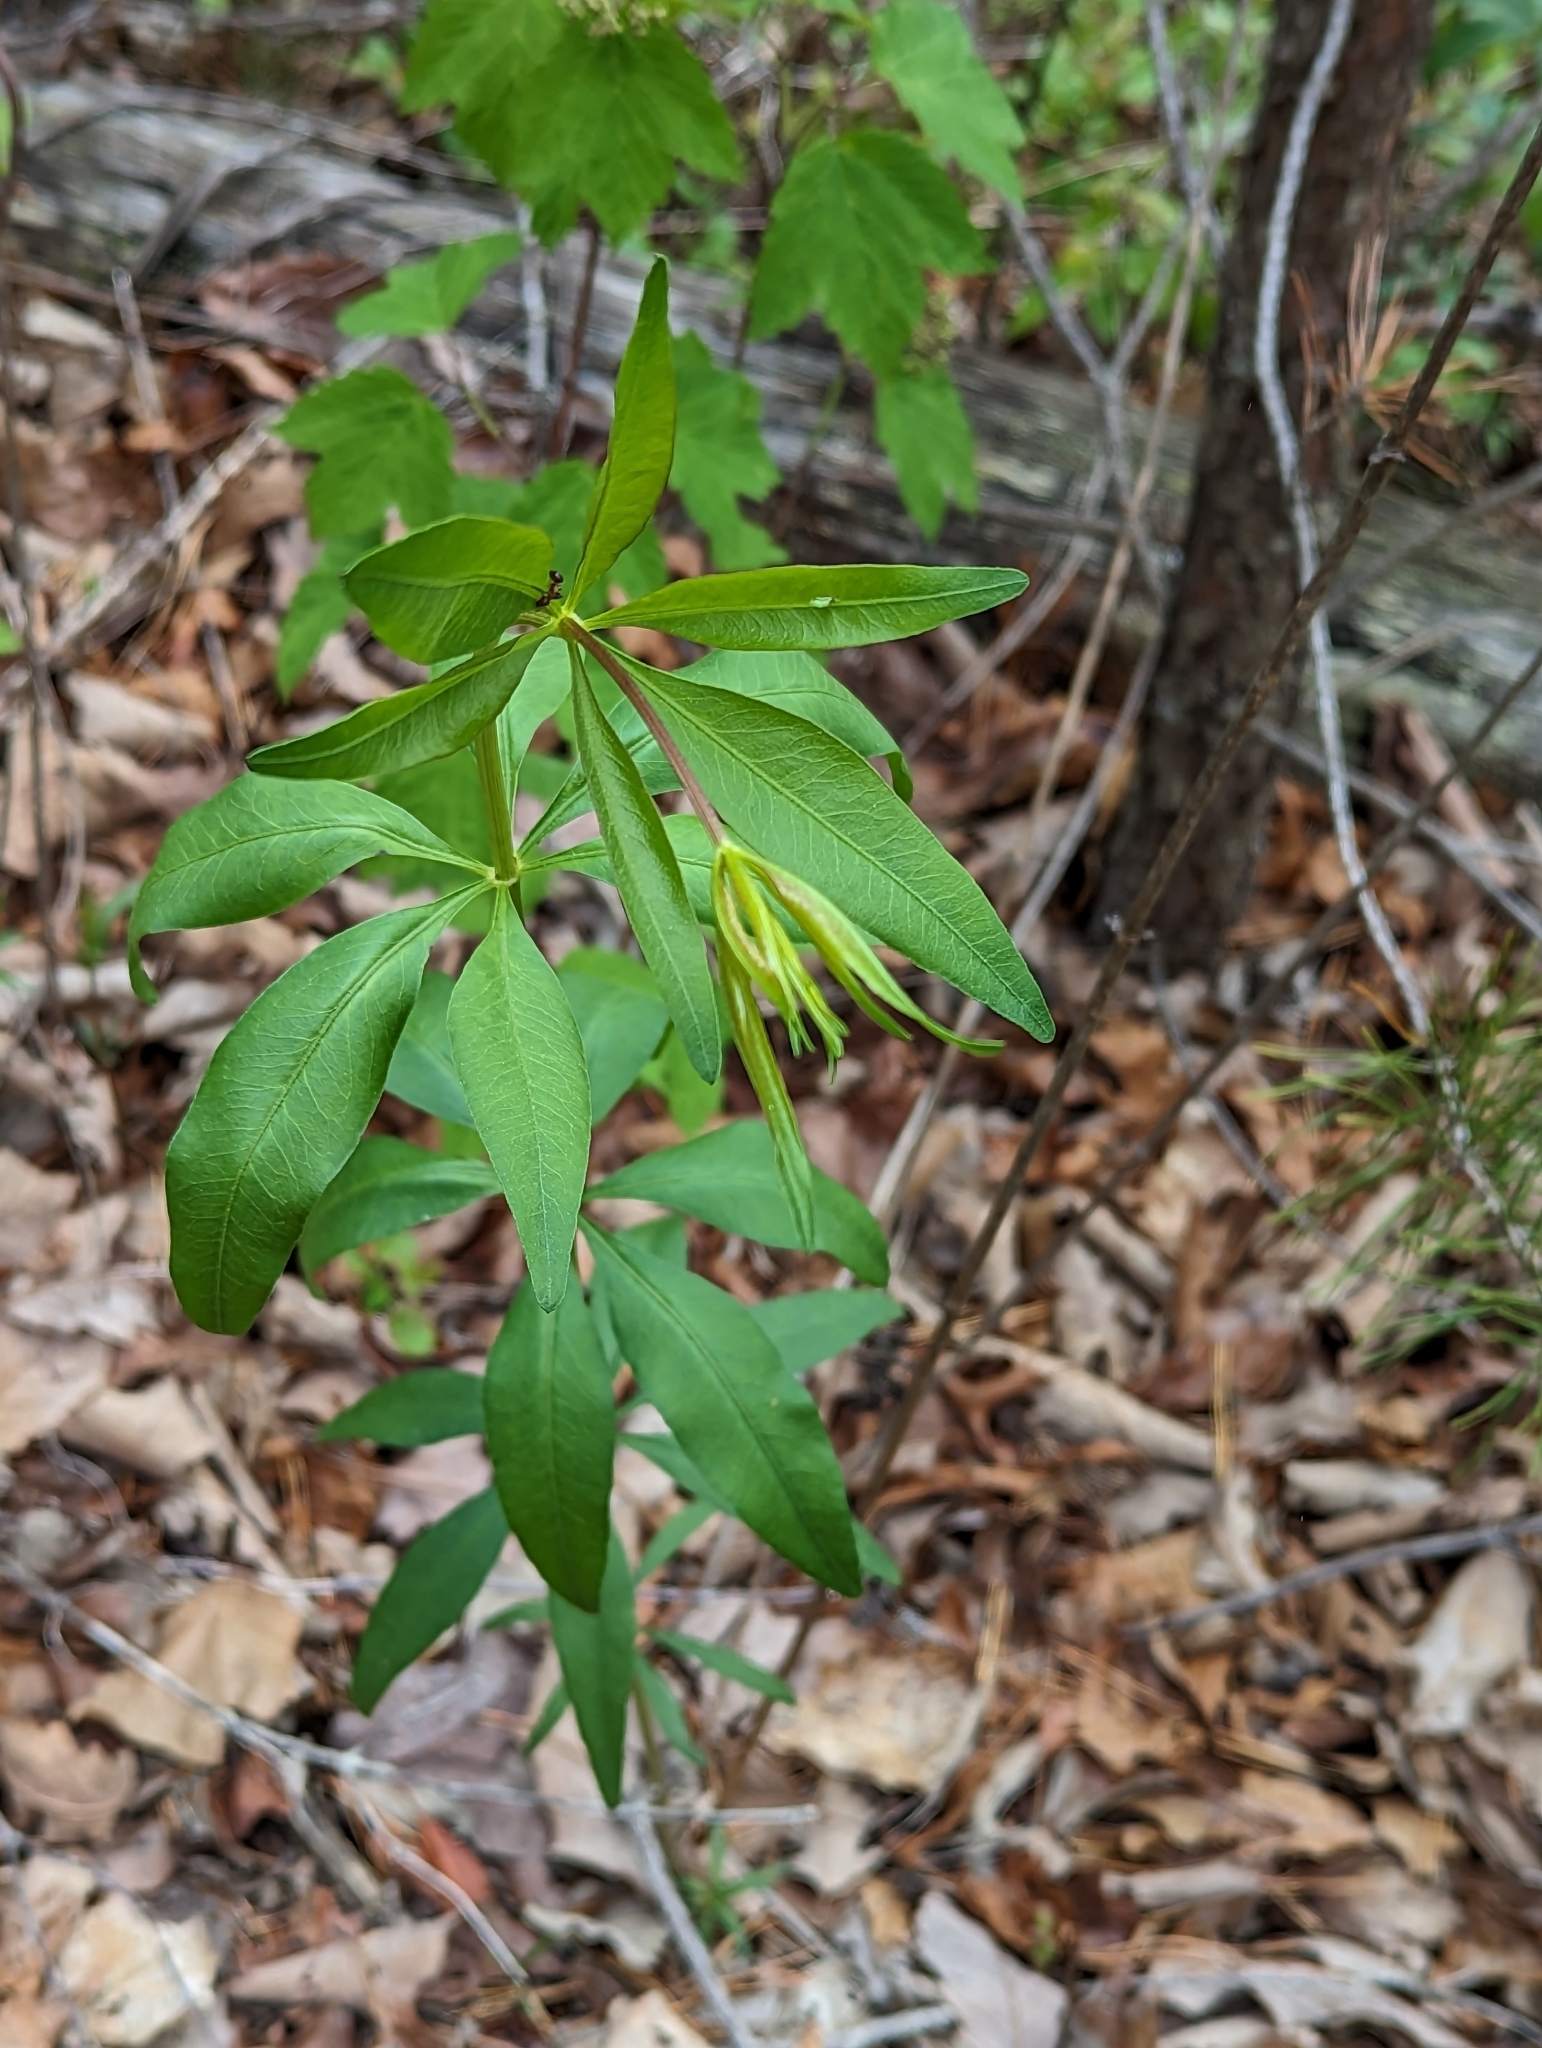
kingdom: Plantae
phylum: Tracheophyta
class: Magnoliopsida
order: Asterales
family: Asteraceae
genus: Coreopsis
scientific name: Coreopsis major
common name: Forest tickseed
